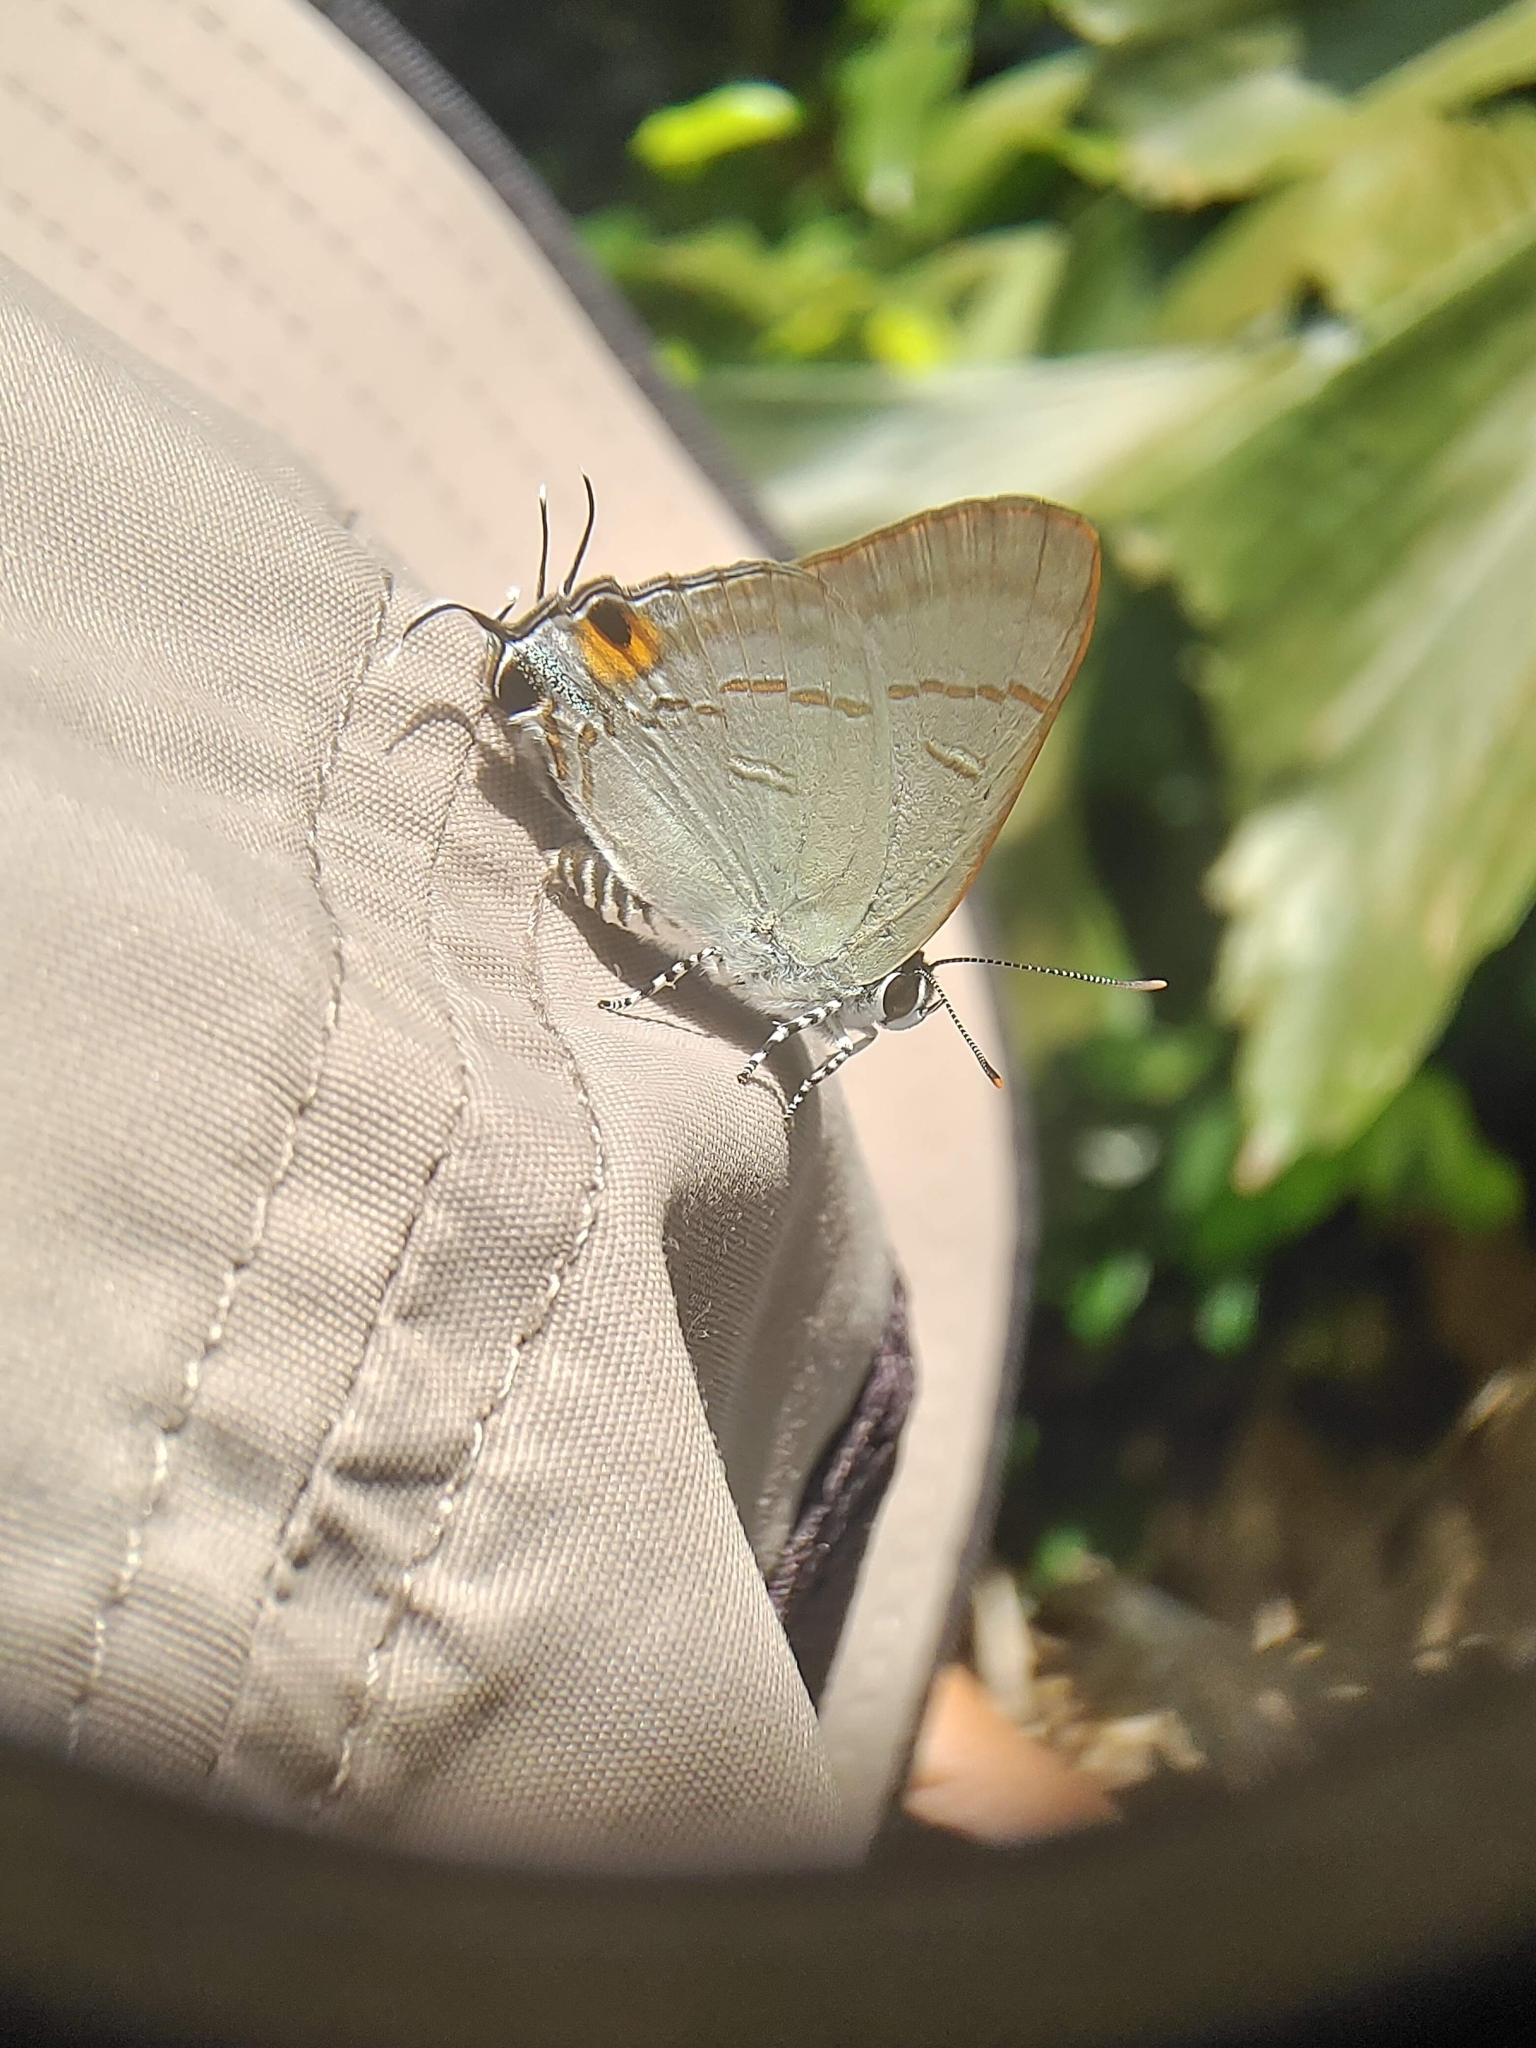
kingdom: Animalia
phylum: Arthropoda
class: Insecta
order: Lepidoptera
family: Lycaenidae
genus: Hypolycaena
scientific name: Hypolycaena erylus
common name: Common tit
